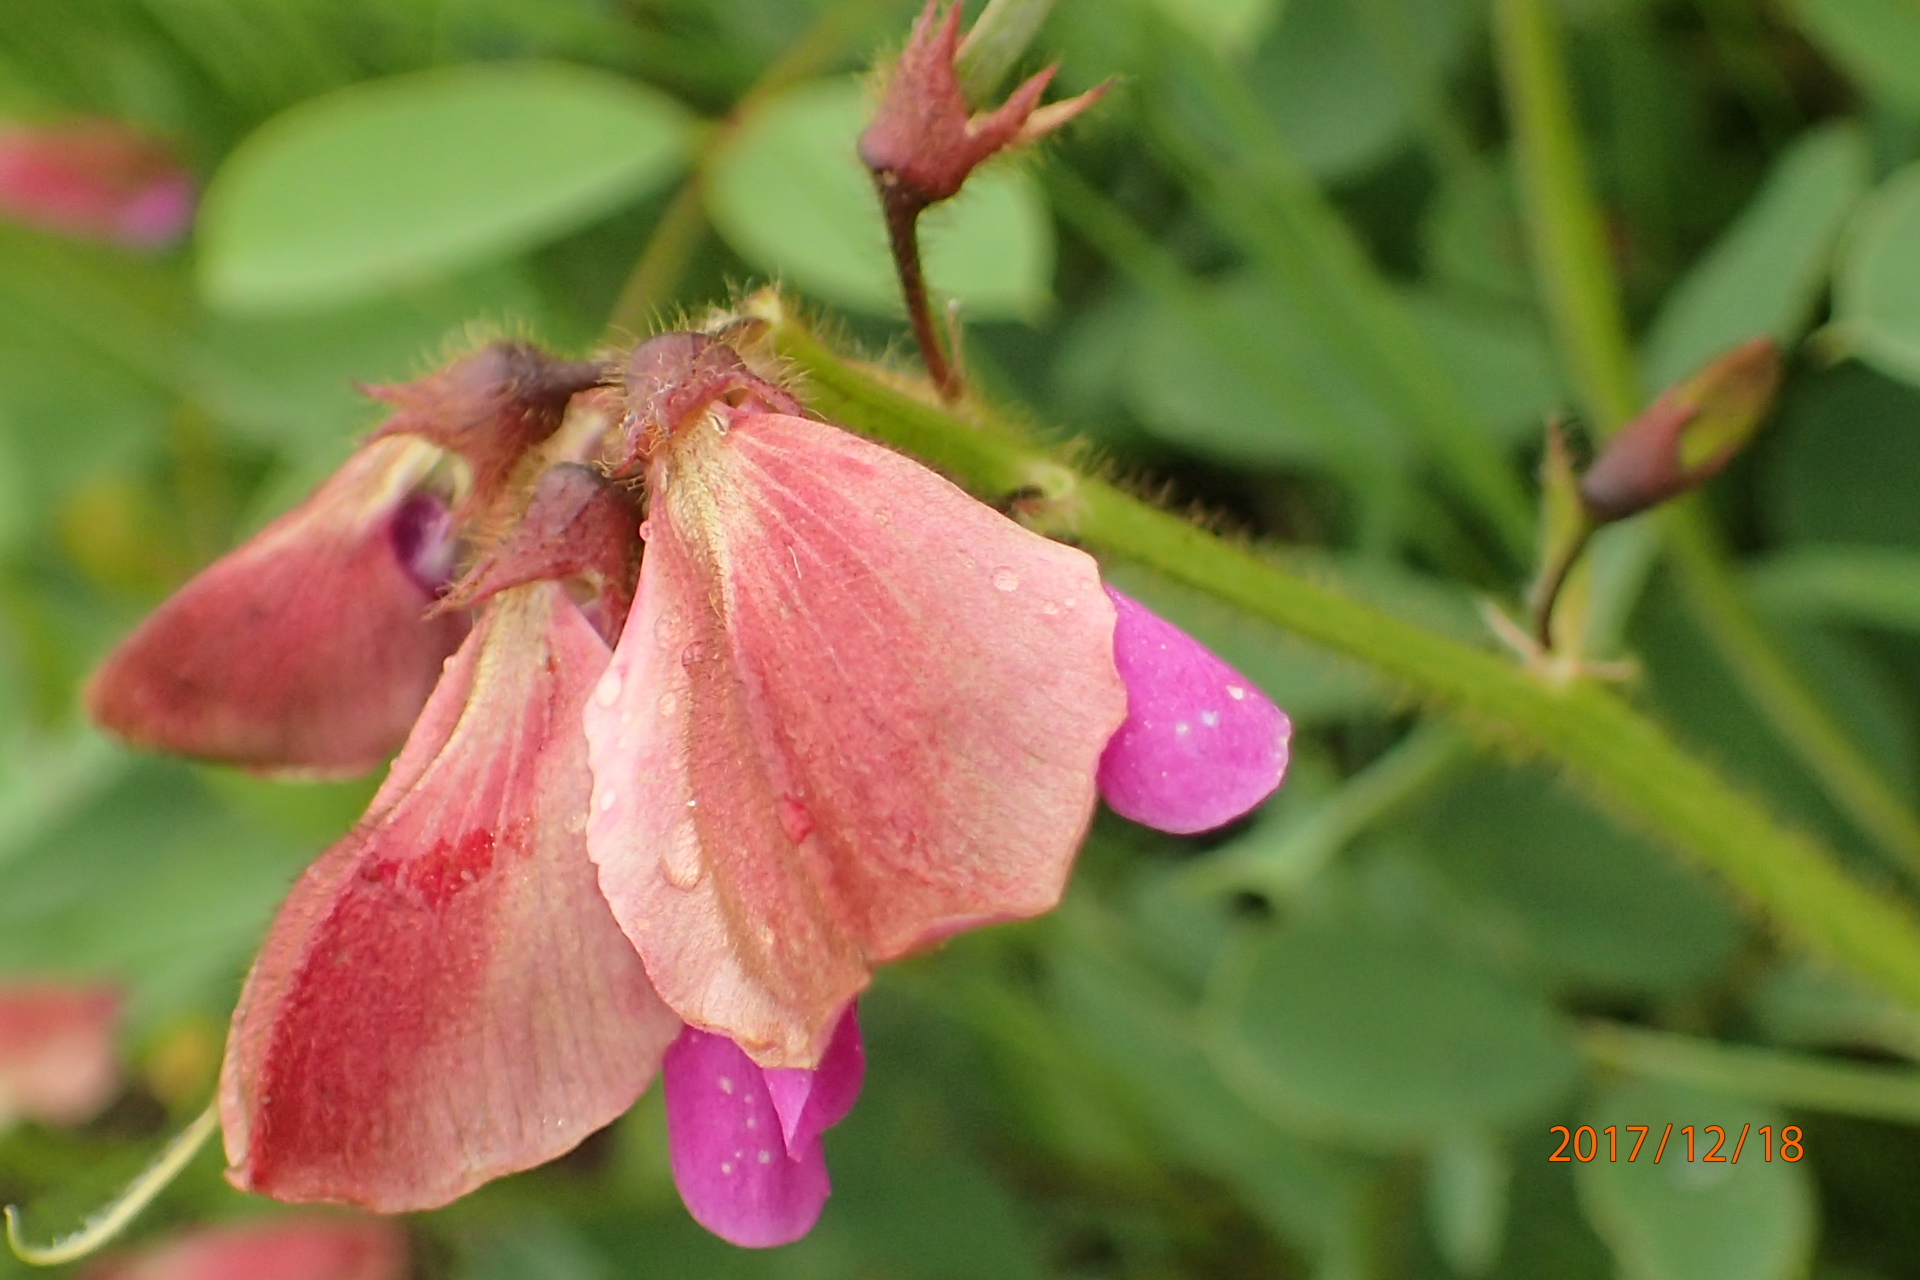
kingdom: Plantae
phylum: Tracheophyta
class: Magnoliopsida
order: Fabales
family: Fabaceae
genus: Tephrosia
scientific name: Tephrosia macropoda
